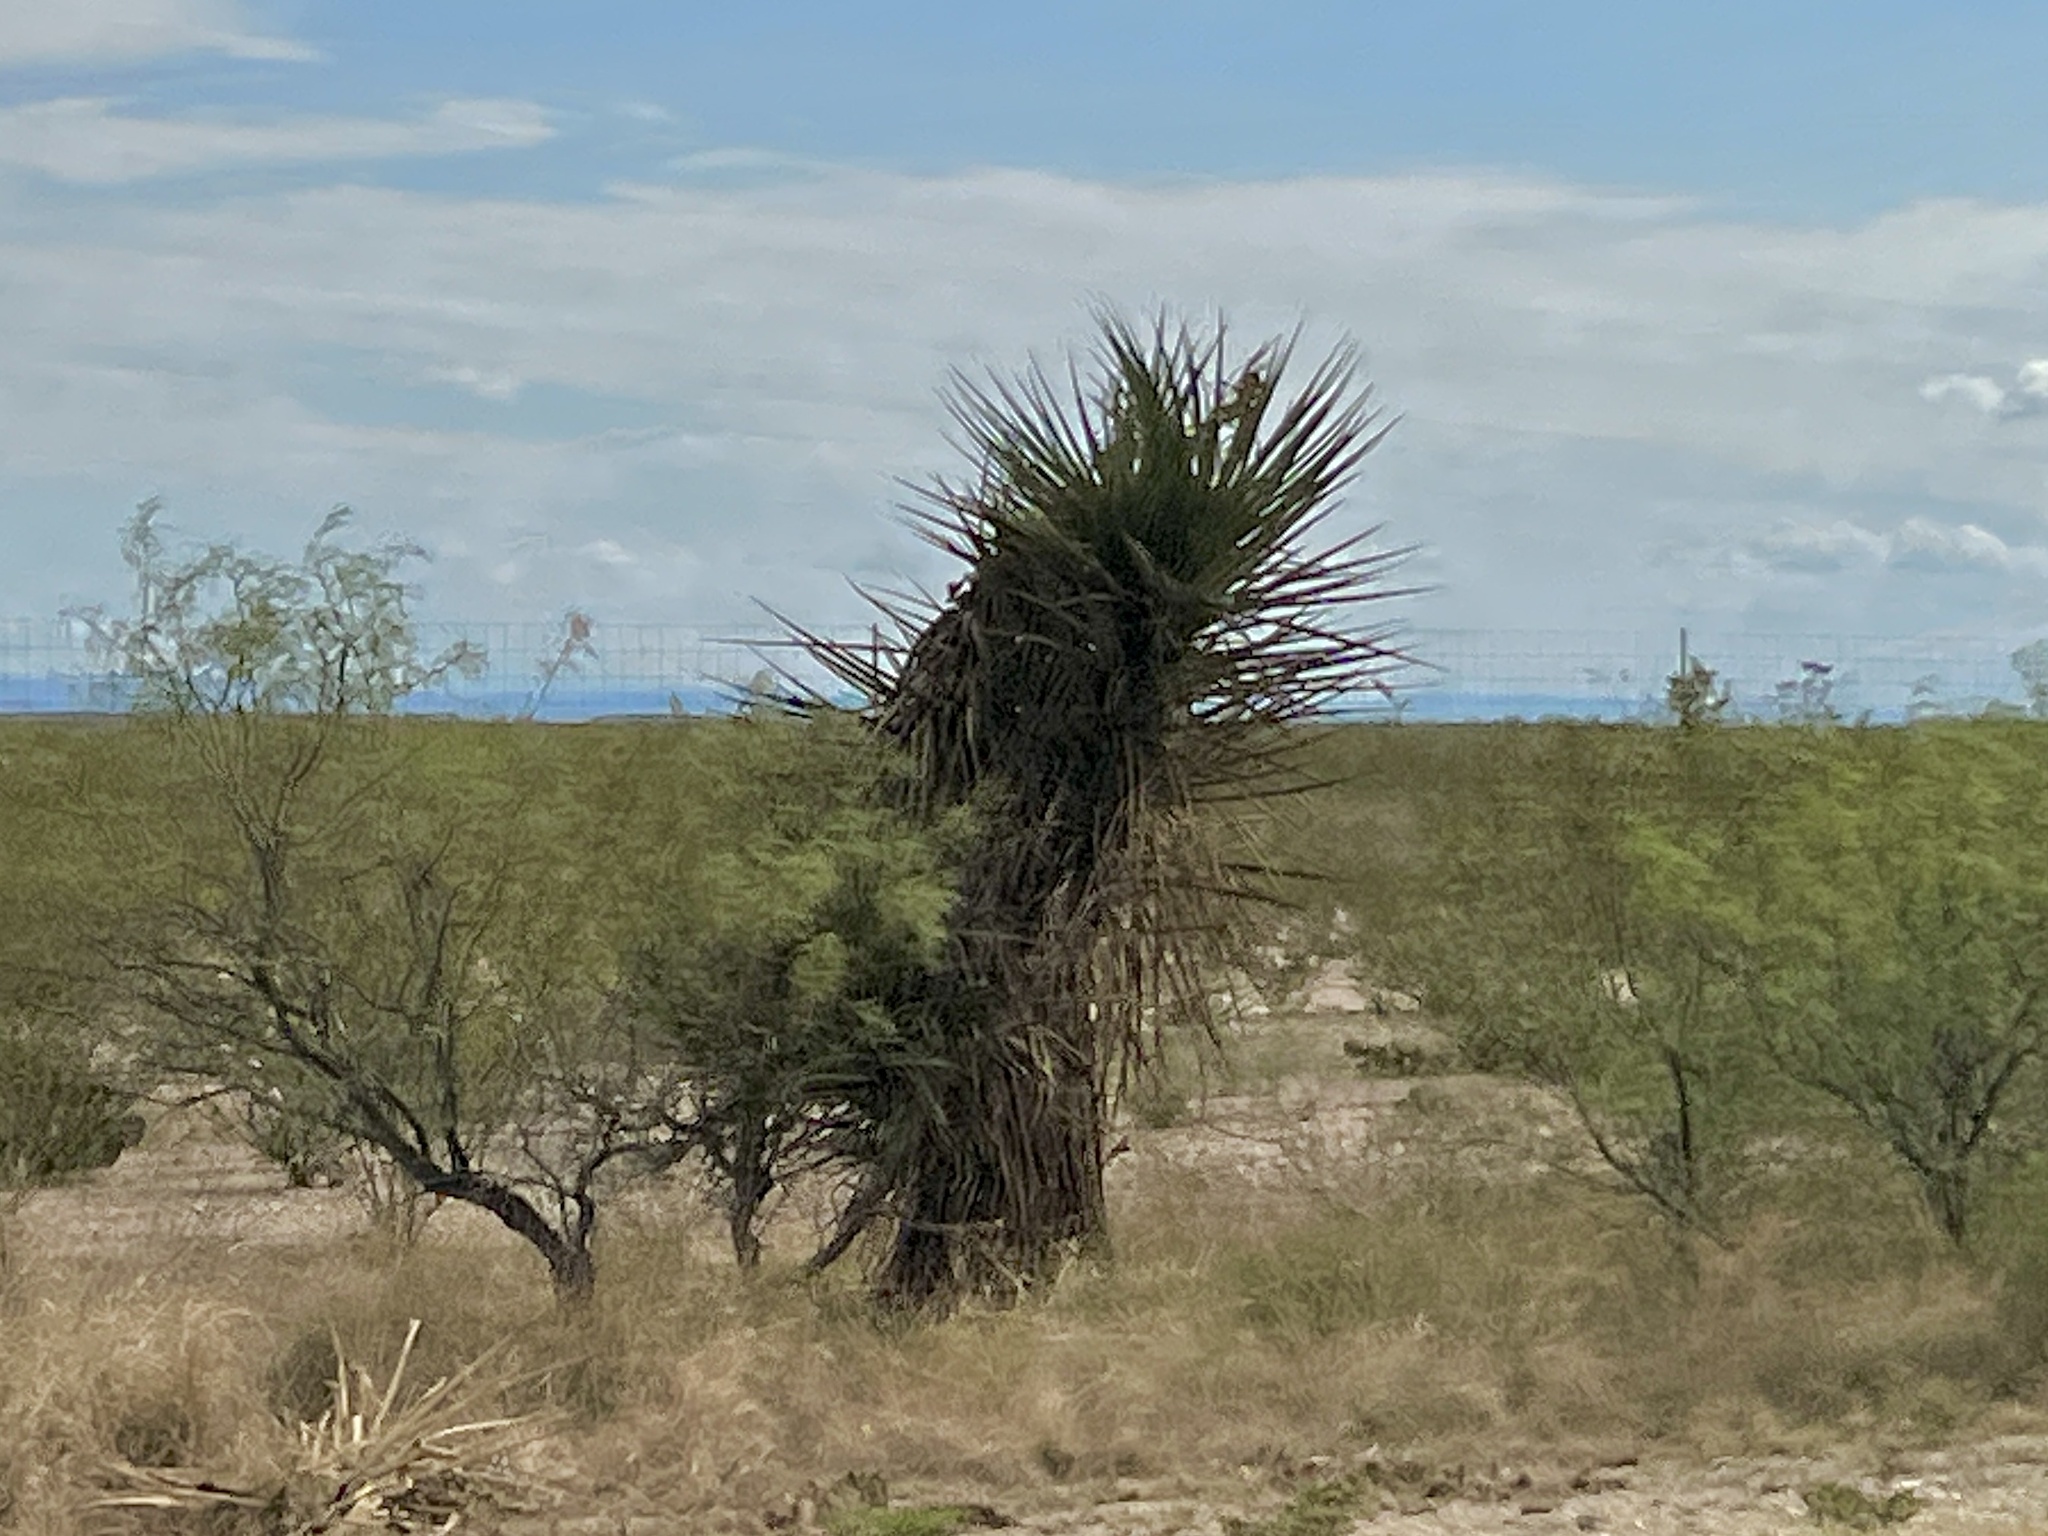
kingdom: Plantae
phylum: Tracheophyta
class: Liliopsida
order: Asparagales
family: Asparagaceae
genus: Yucca
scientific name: Yucca treculiana
